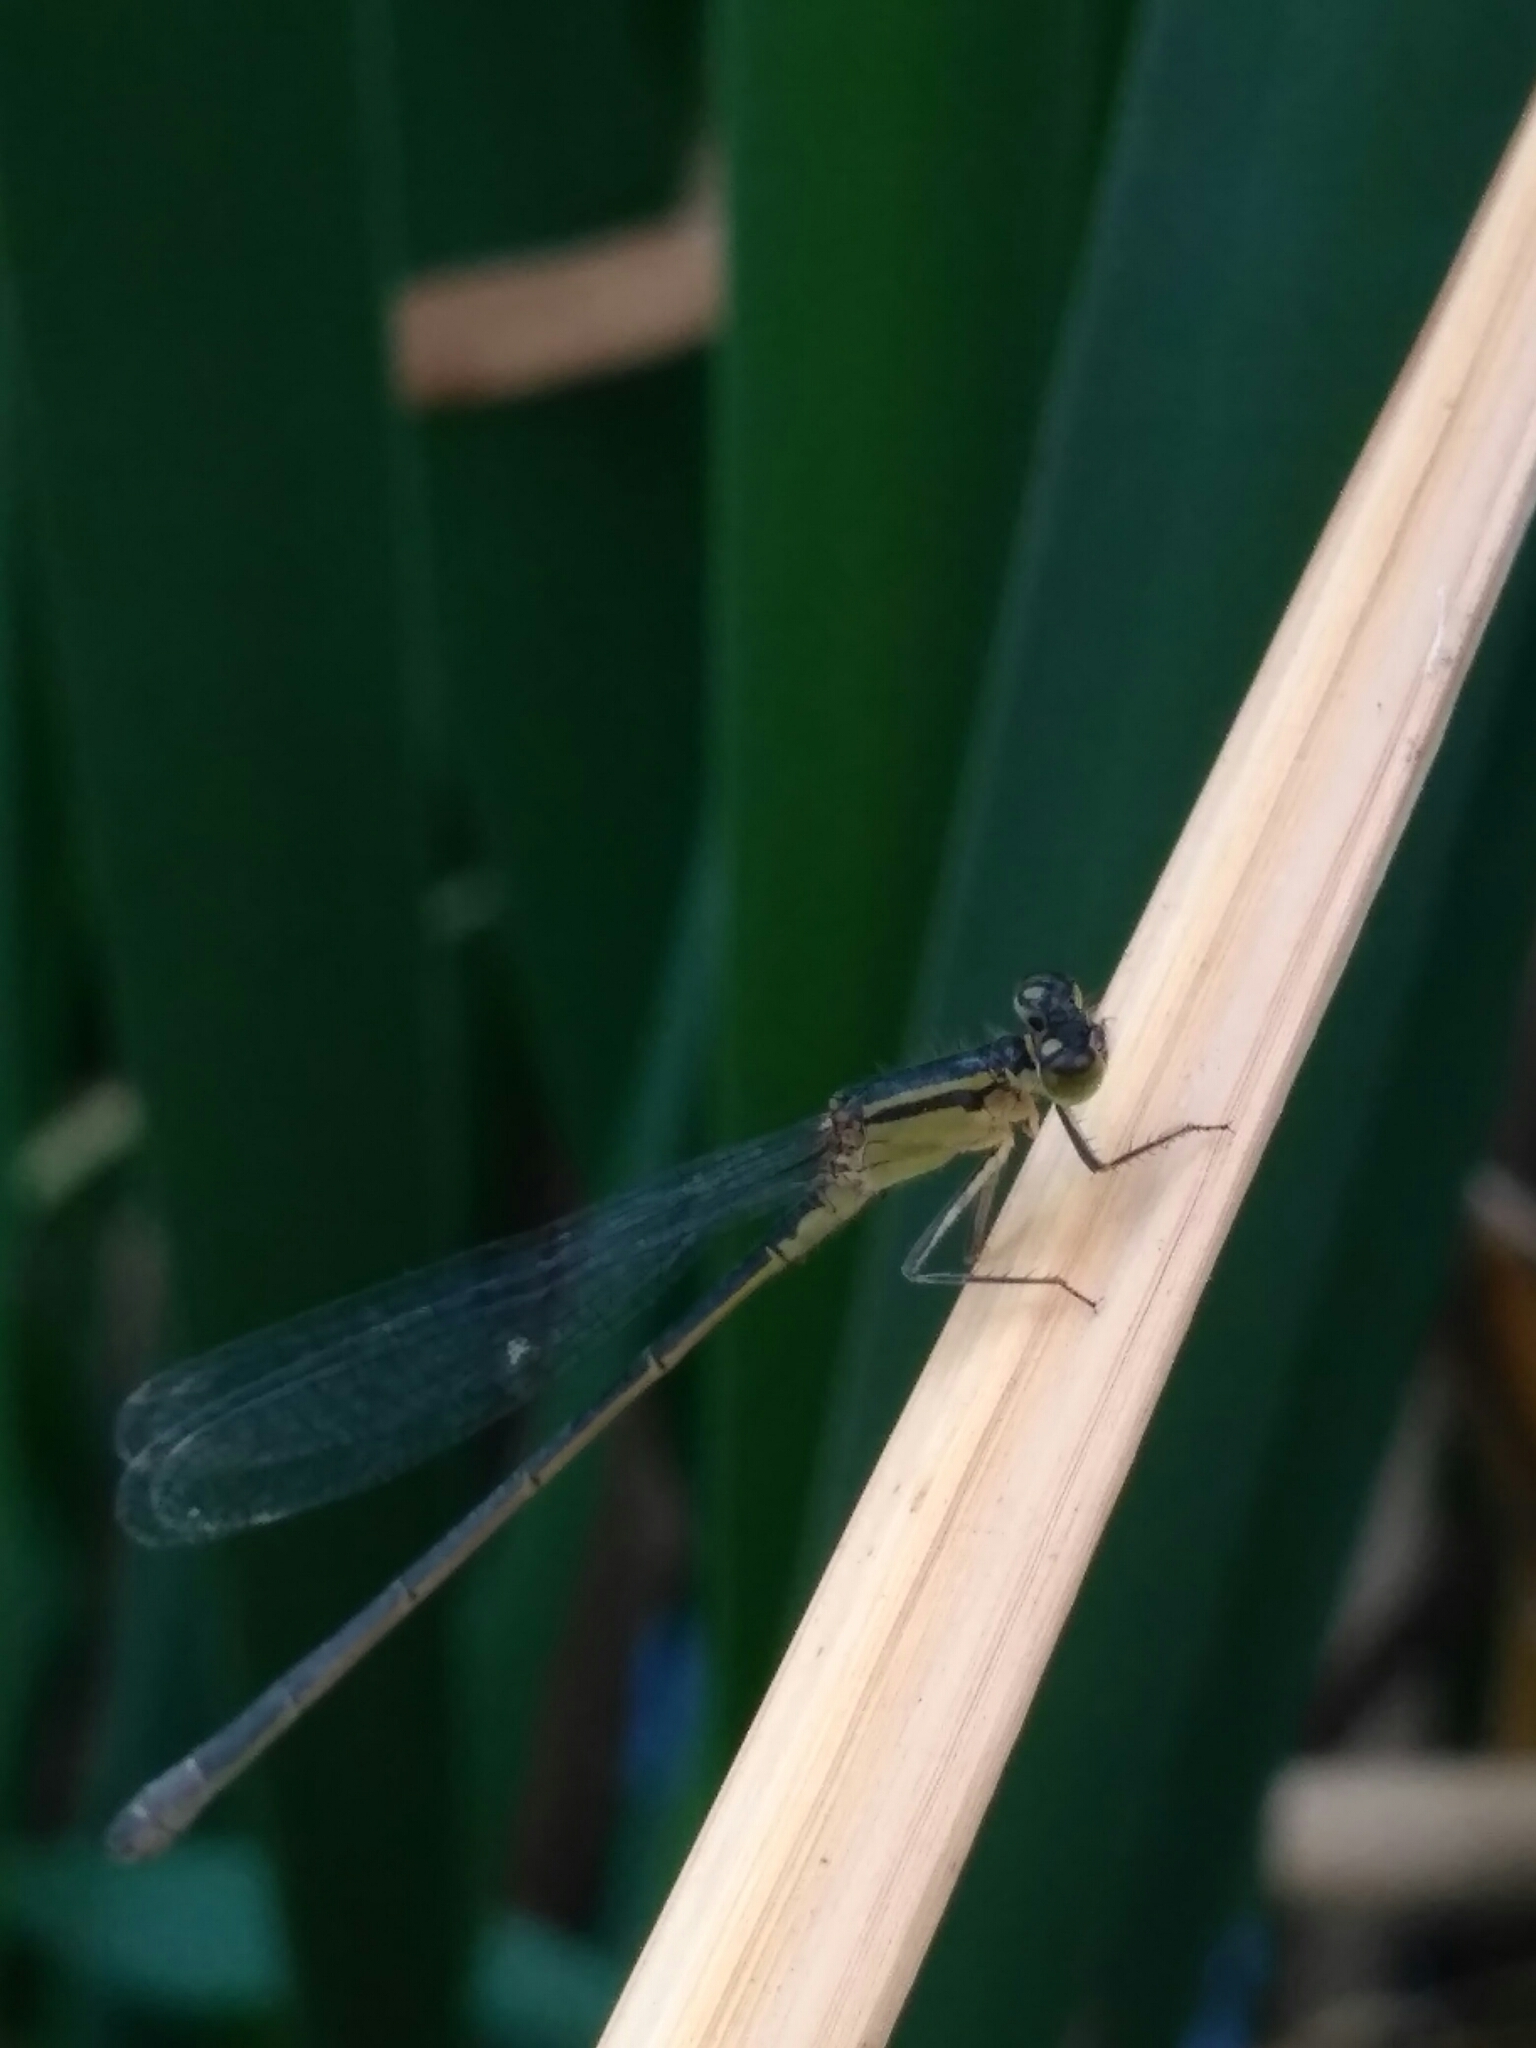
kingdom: Animalia
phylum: Arthropoda
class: Insecta
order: Odonata
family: Coenagrionidae
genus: Ischnura
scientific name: Ischnura elegans
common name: Blue-tailed damselfly
